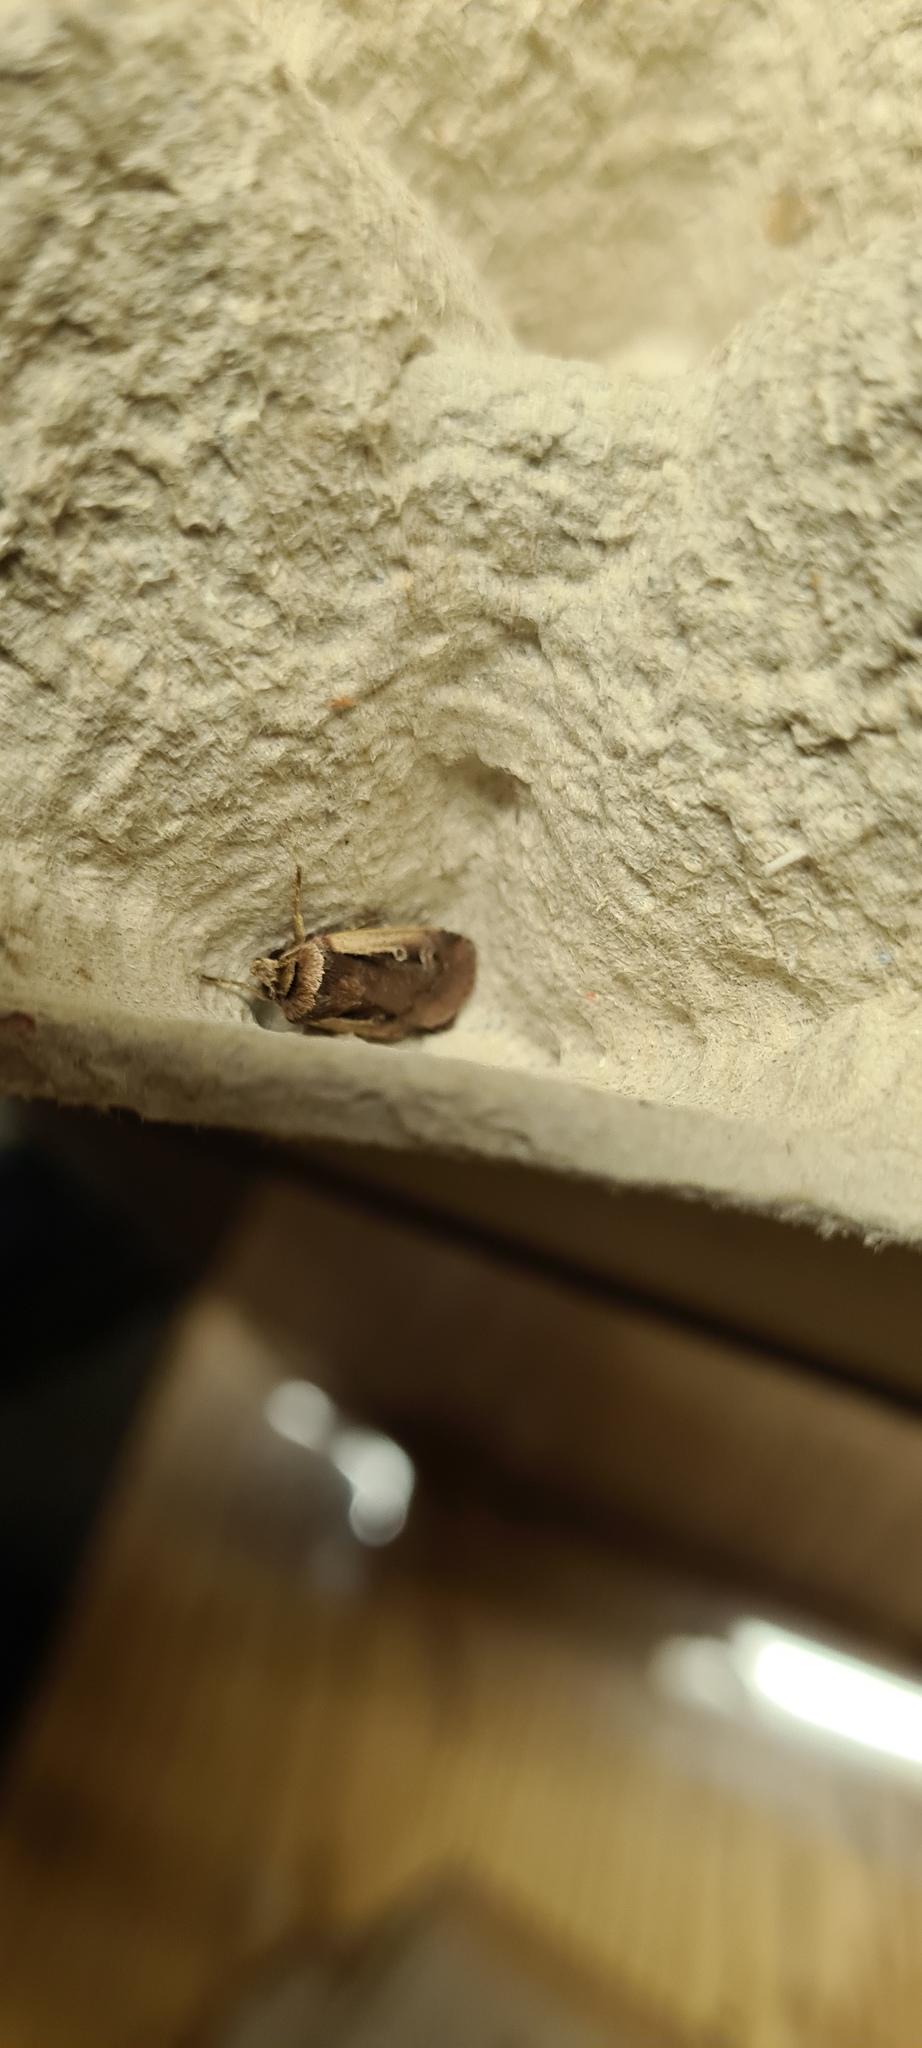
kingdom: Animalia
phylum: Arthropoda
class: Insecta
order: Lepidoptera
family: Noctuidae
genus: Ochropleura
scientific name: Ochropleura plecta
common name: Flame shoulder
